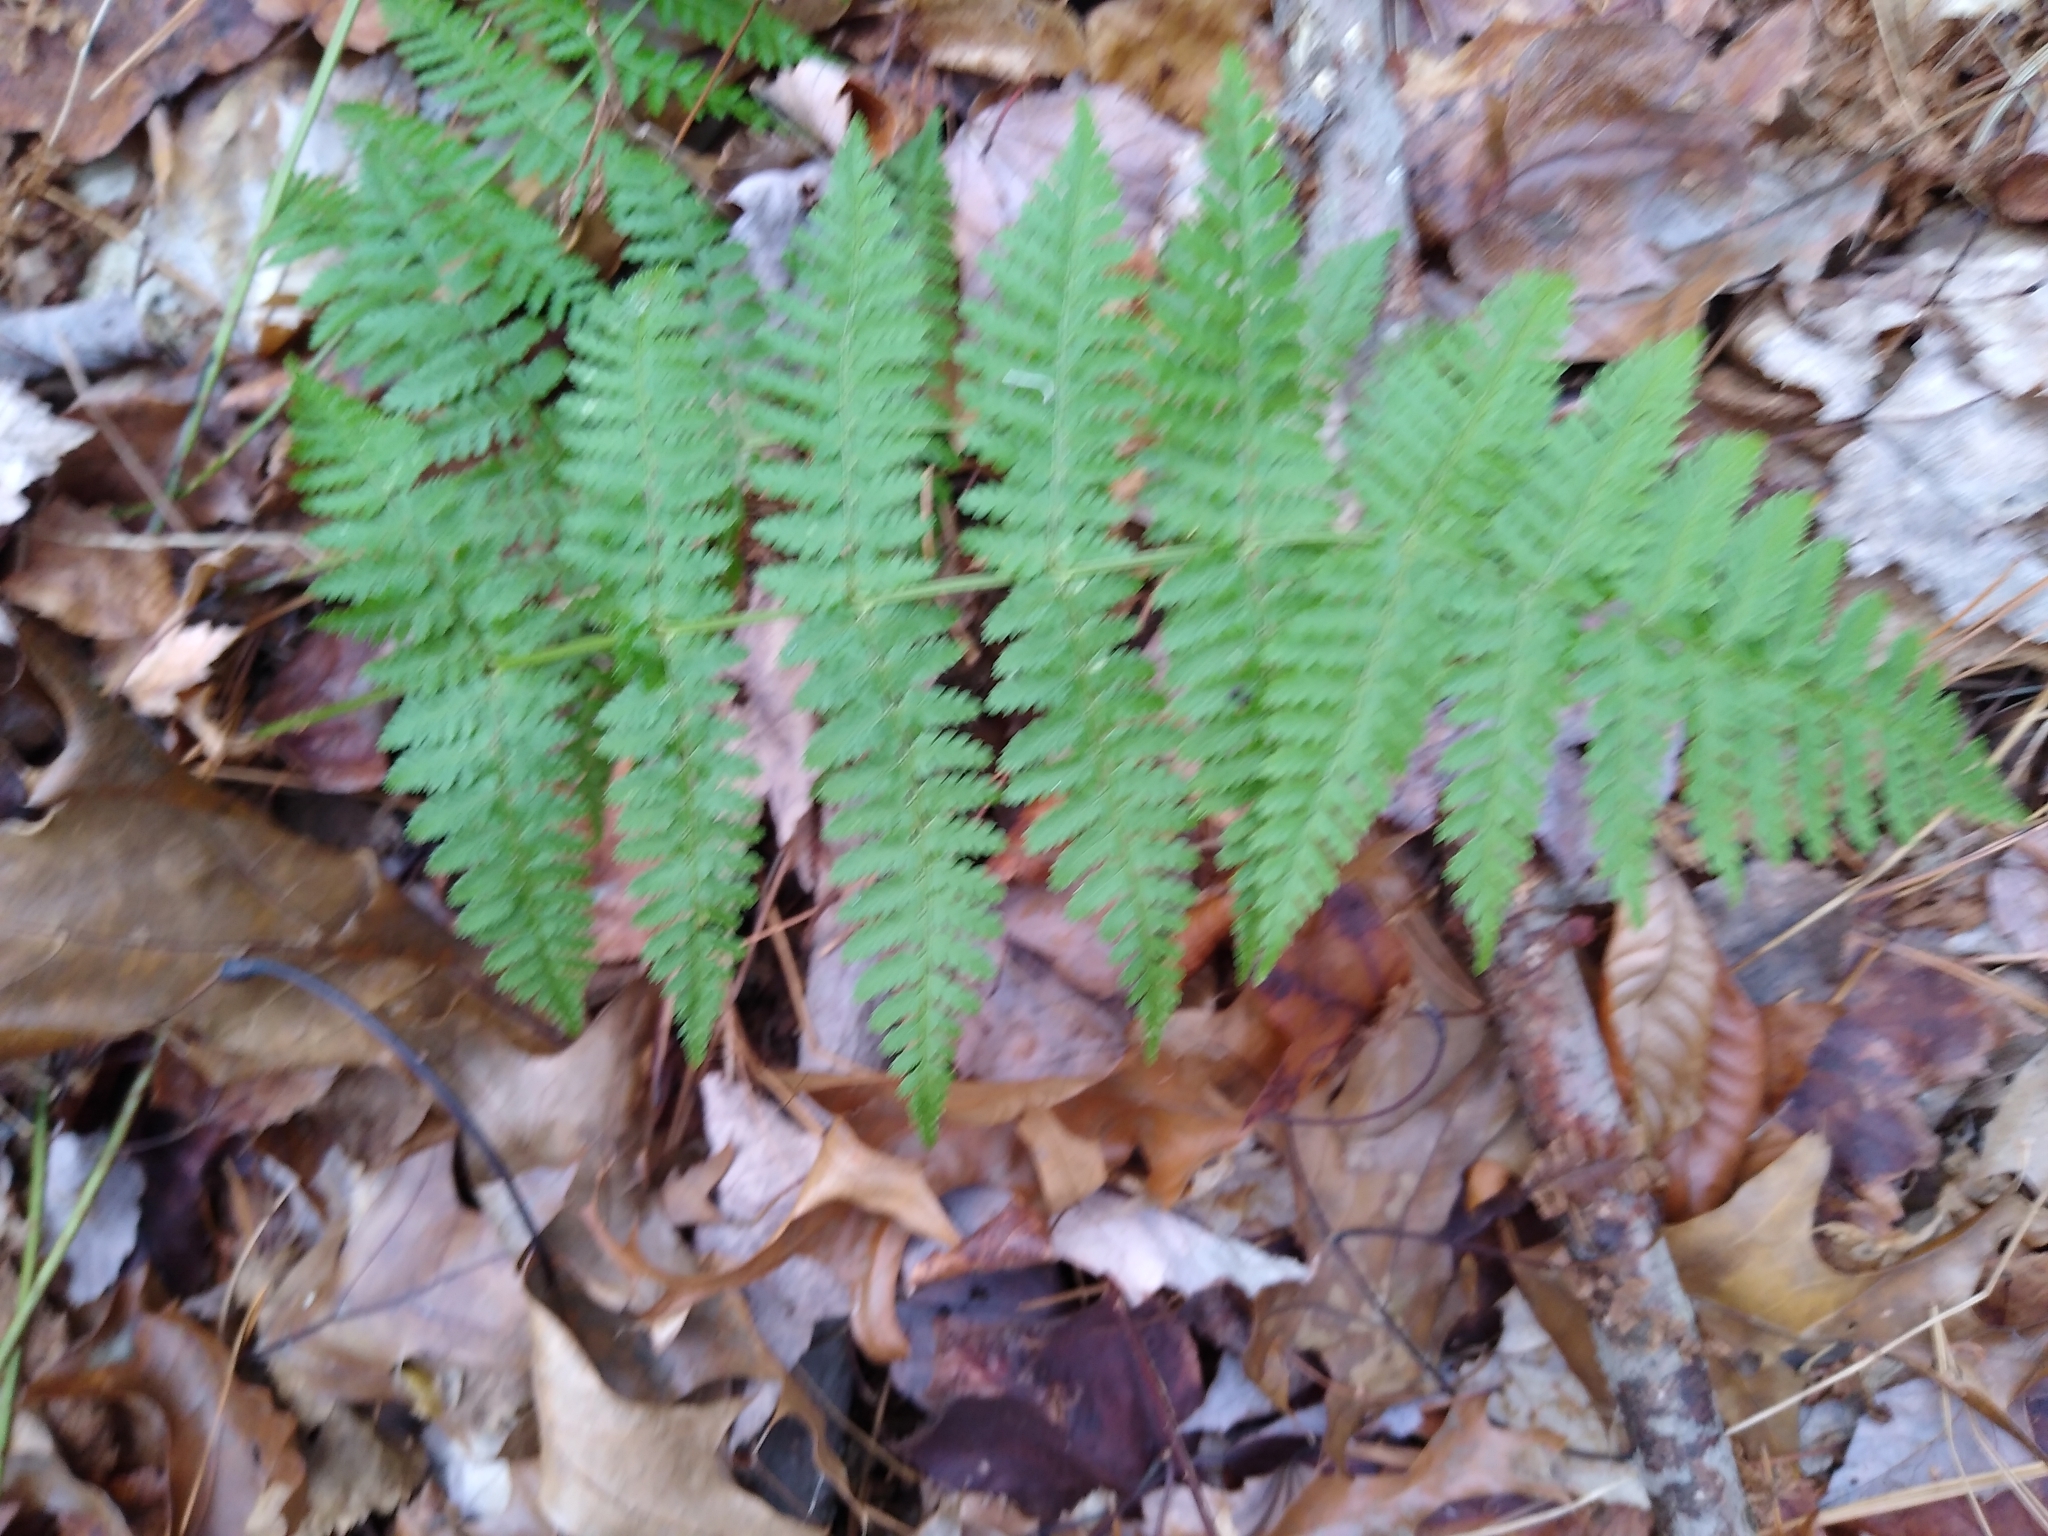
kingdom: Plantae
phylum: Tracheophyta
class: Polypodiopsida
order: Polypodiales
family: Dryopteridaceae
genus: Dryopteris
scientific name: Dryopteris intermedia
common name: Evergreen wood fern
